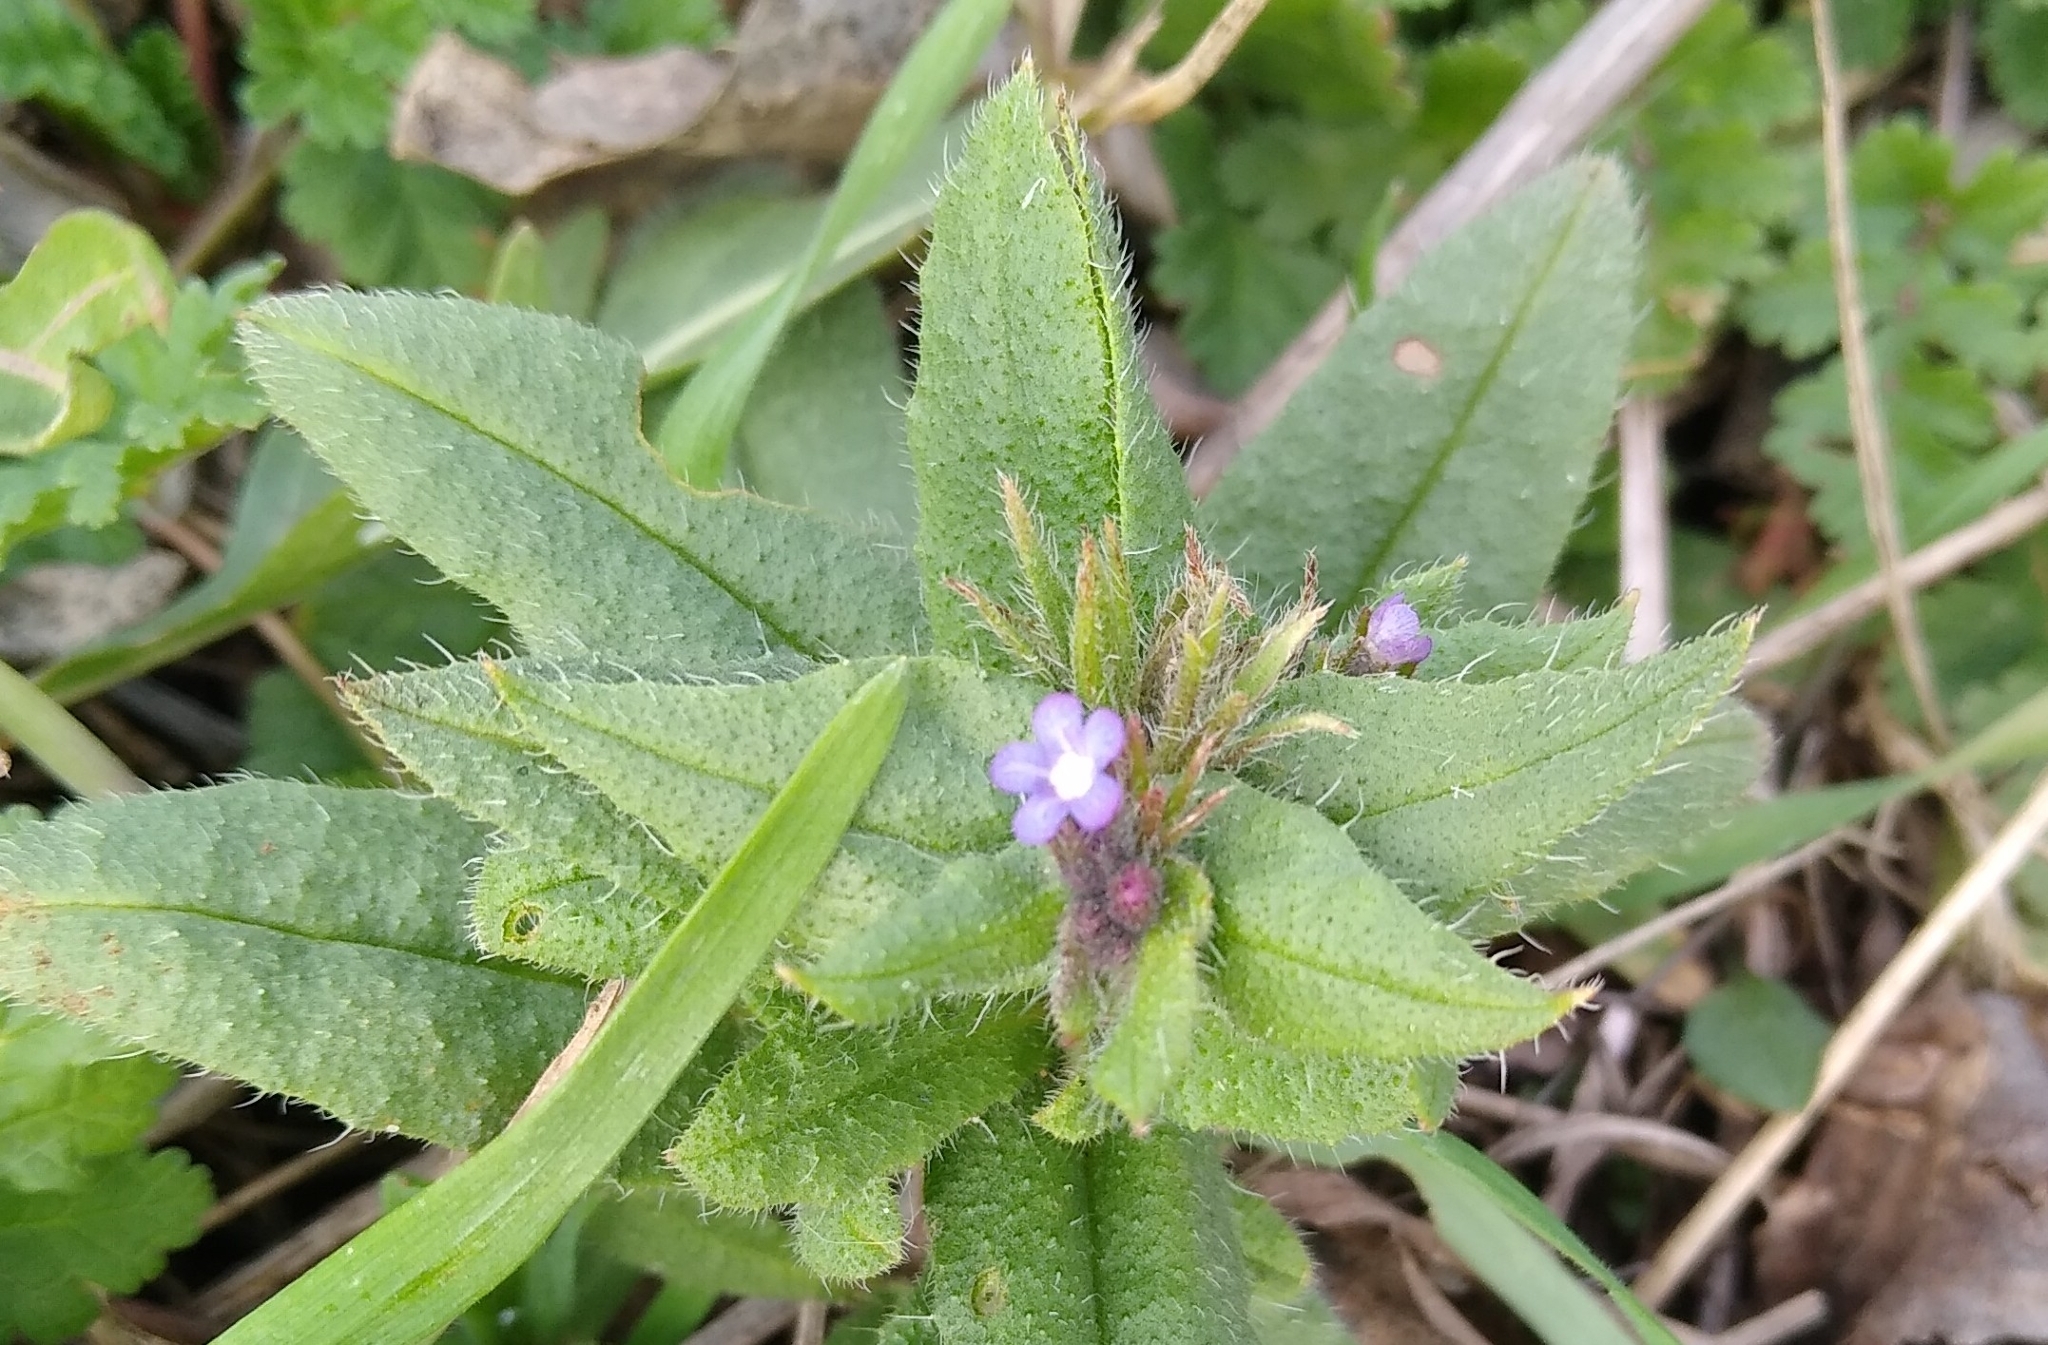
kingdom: Plantae
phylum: Tracheophyta
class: Magnoliopsida
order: Boraginales
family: Boraginaceae
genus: Lycopsis
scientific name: Lycopsis arvensis
